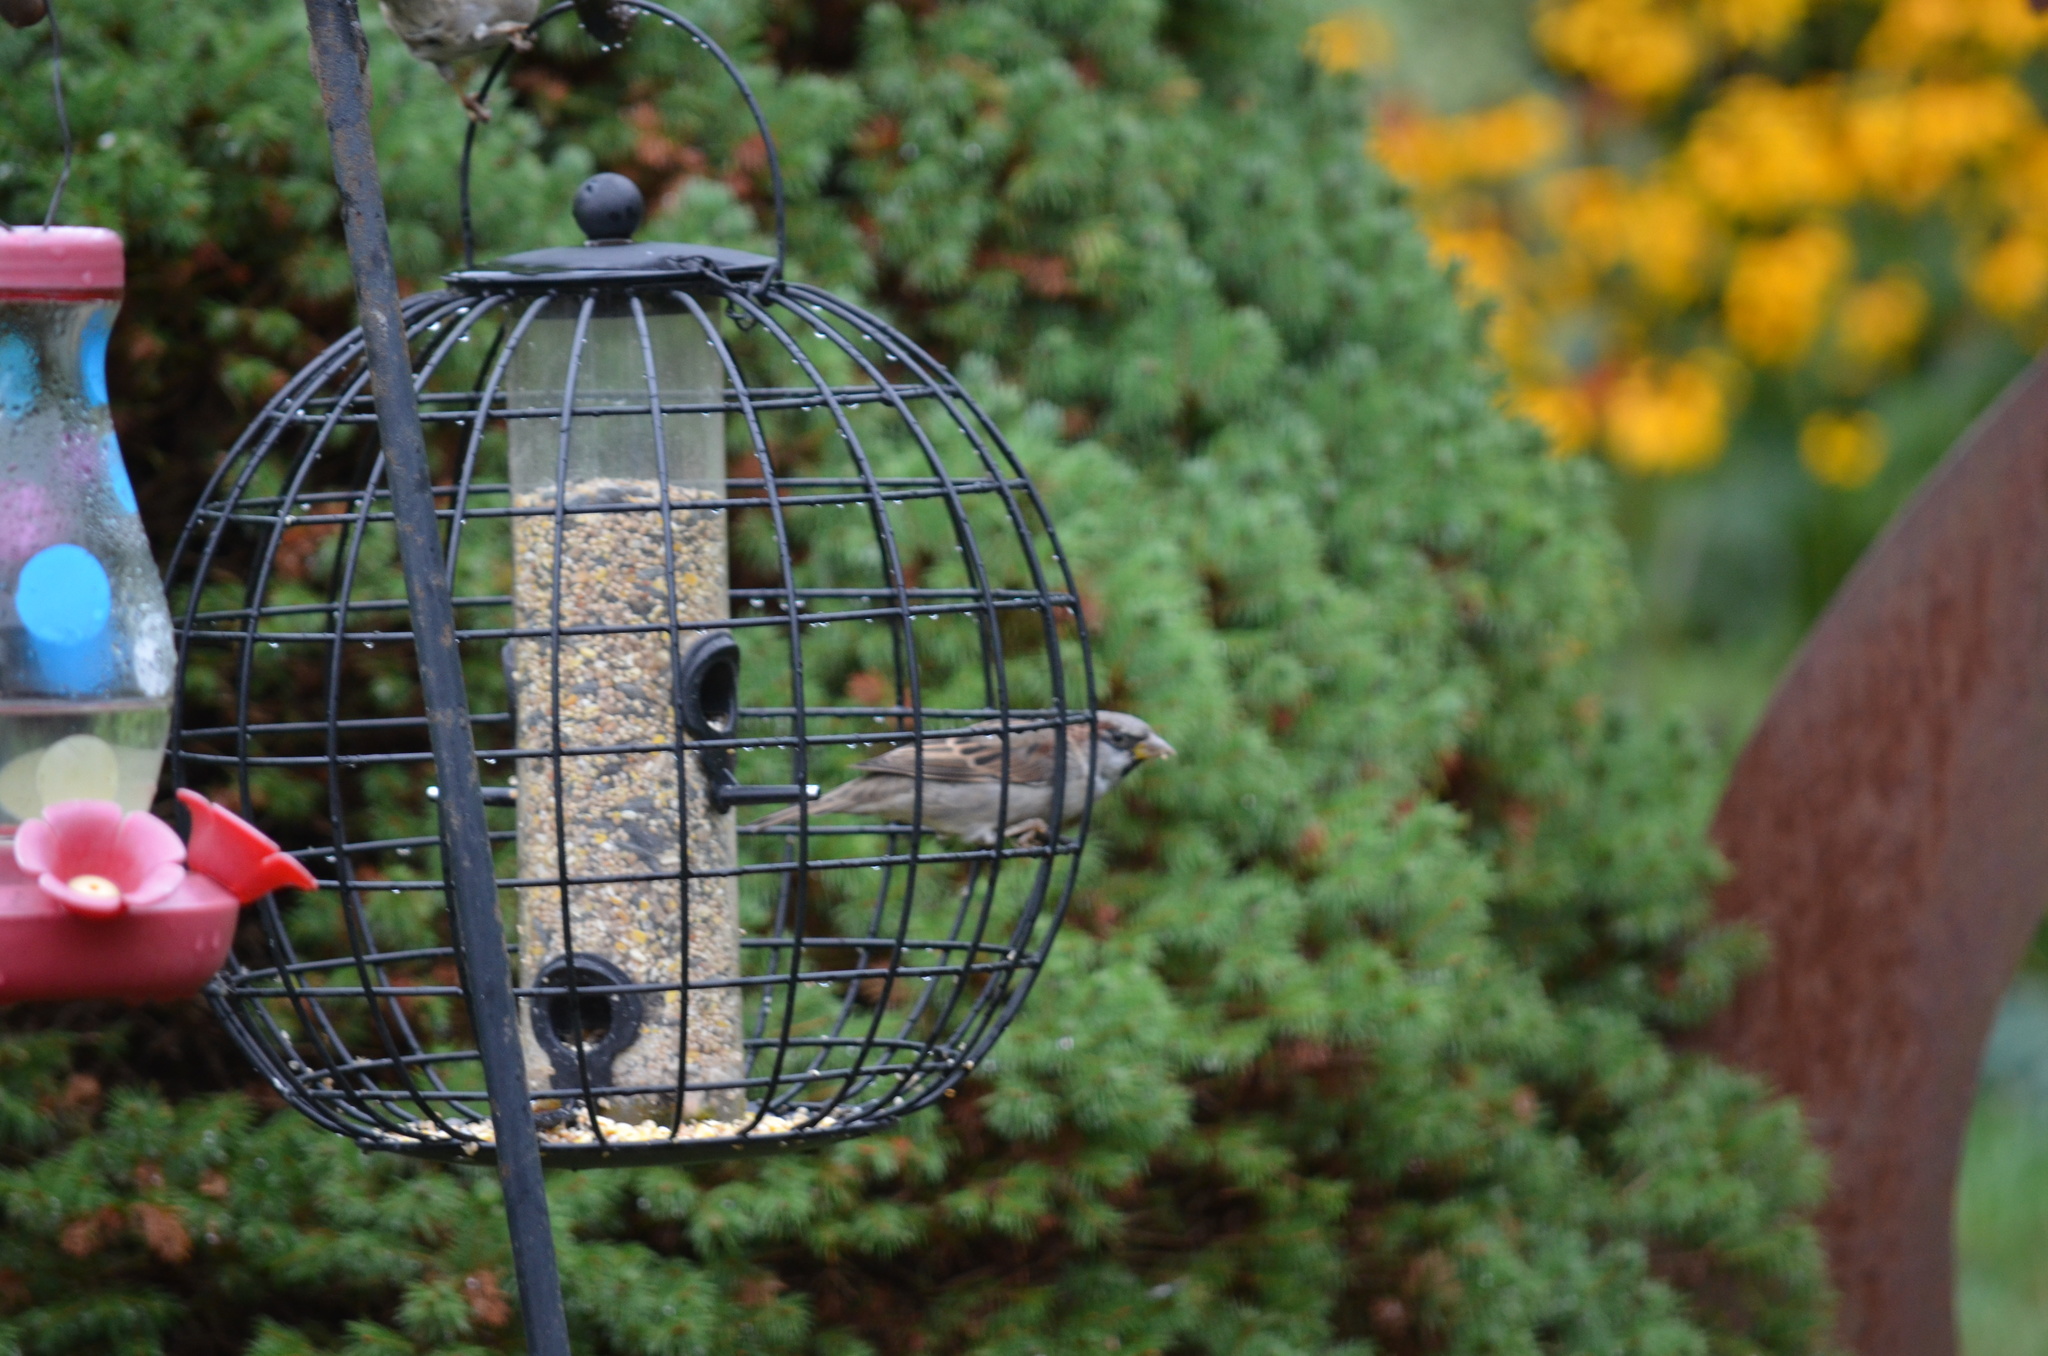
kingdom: Animalia
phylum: Chordata
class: Aves
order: Passeriformes
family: Passeridae
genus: Passer
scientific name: Passer domesticus
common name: House sparrow
